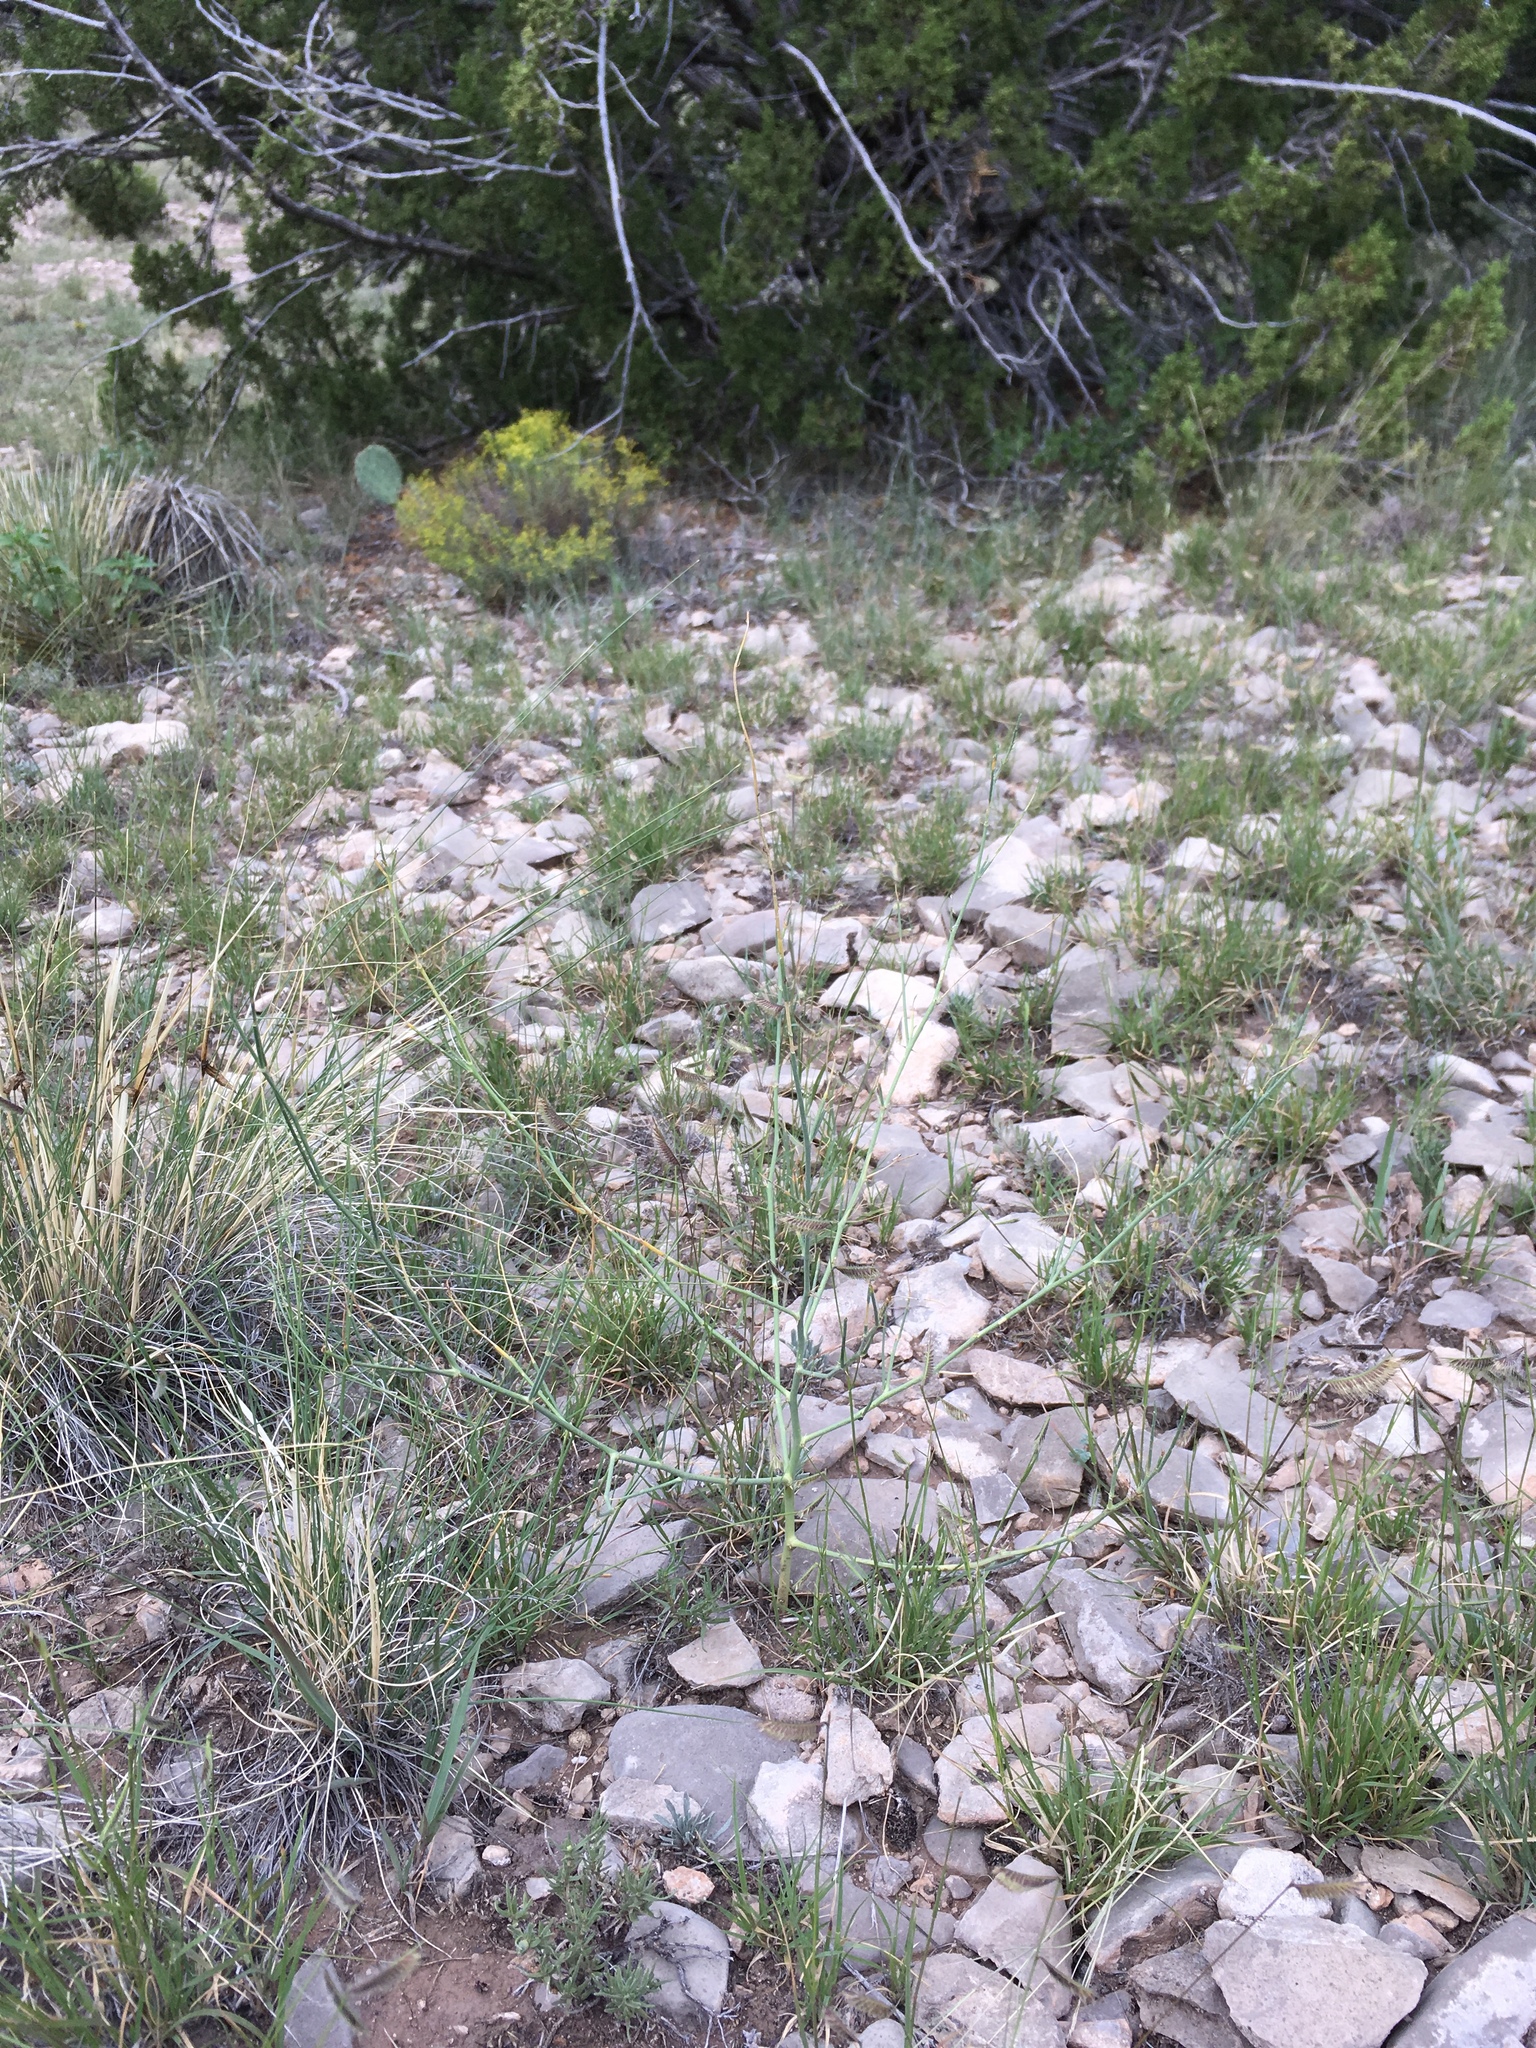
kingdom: Plantae
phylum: Tracheophyta
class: Magnoliopsida
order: Fabales
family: Fabaceae
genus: Peteria
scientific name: Peteria scoparia
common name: Camote del monte
